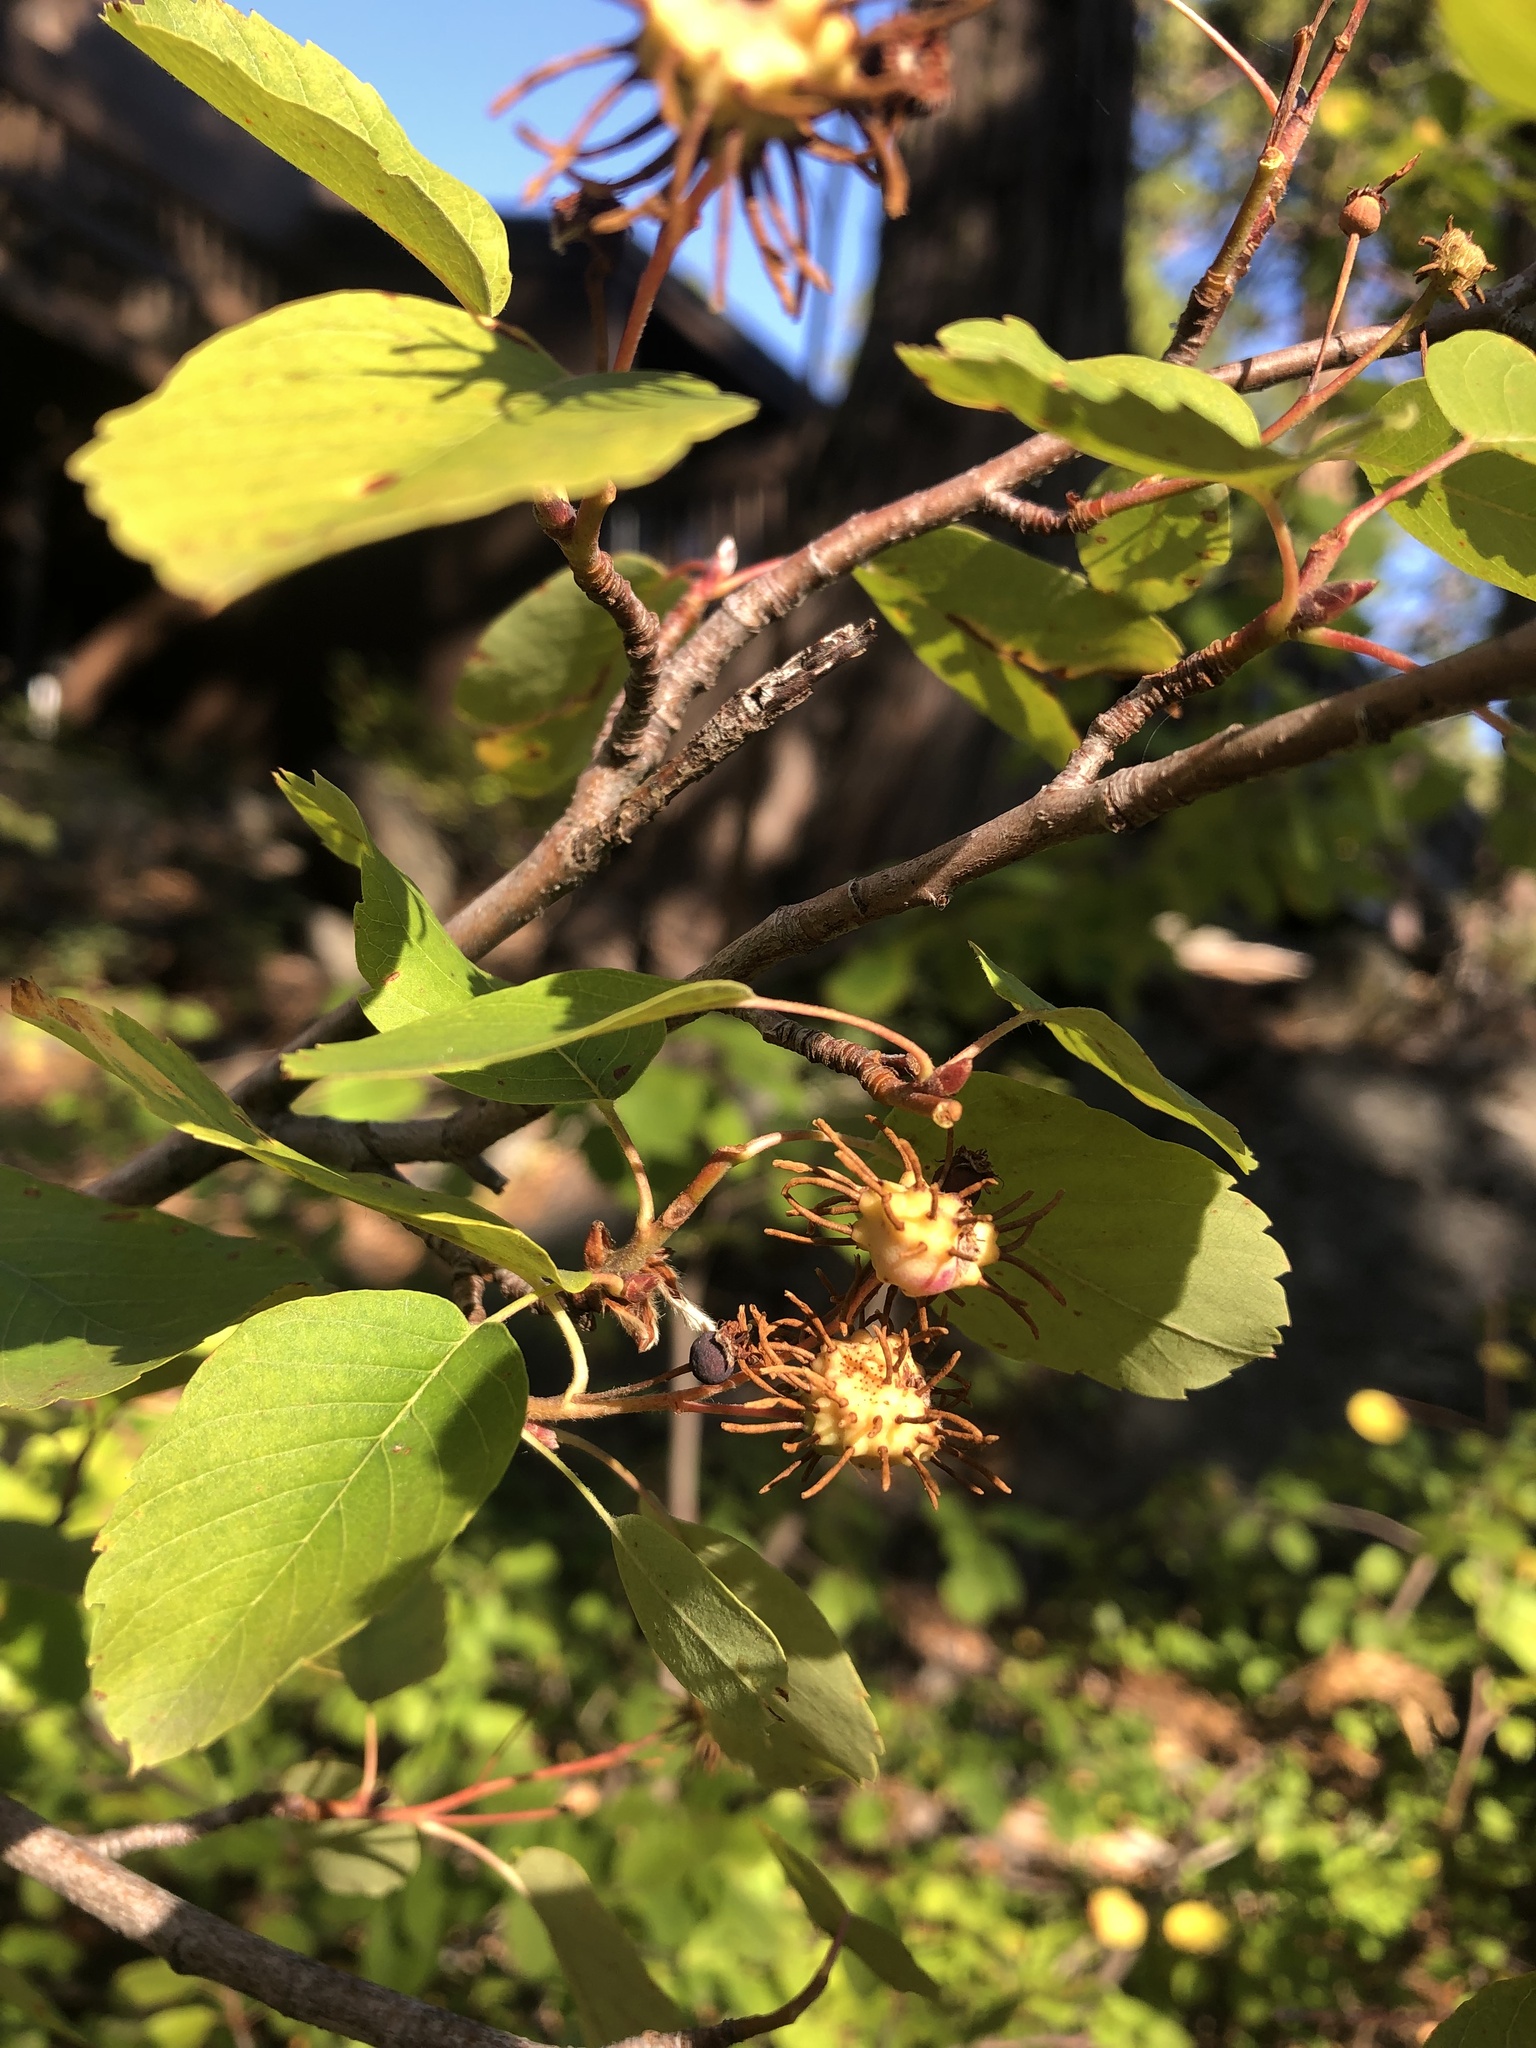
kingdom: Plantae
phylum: Tracheophyta
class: Magnoliopsida
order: Rosales
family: Rosaceae
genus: Amelanchier
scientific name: Amelanchier utahensis
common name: Utah serviceberry
